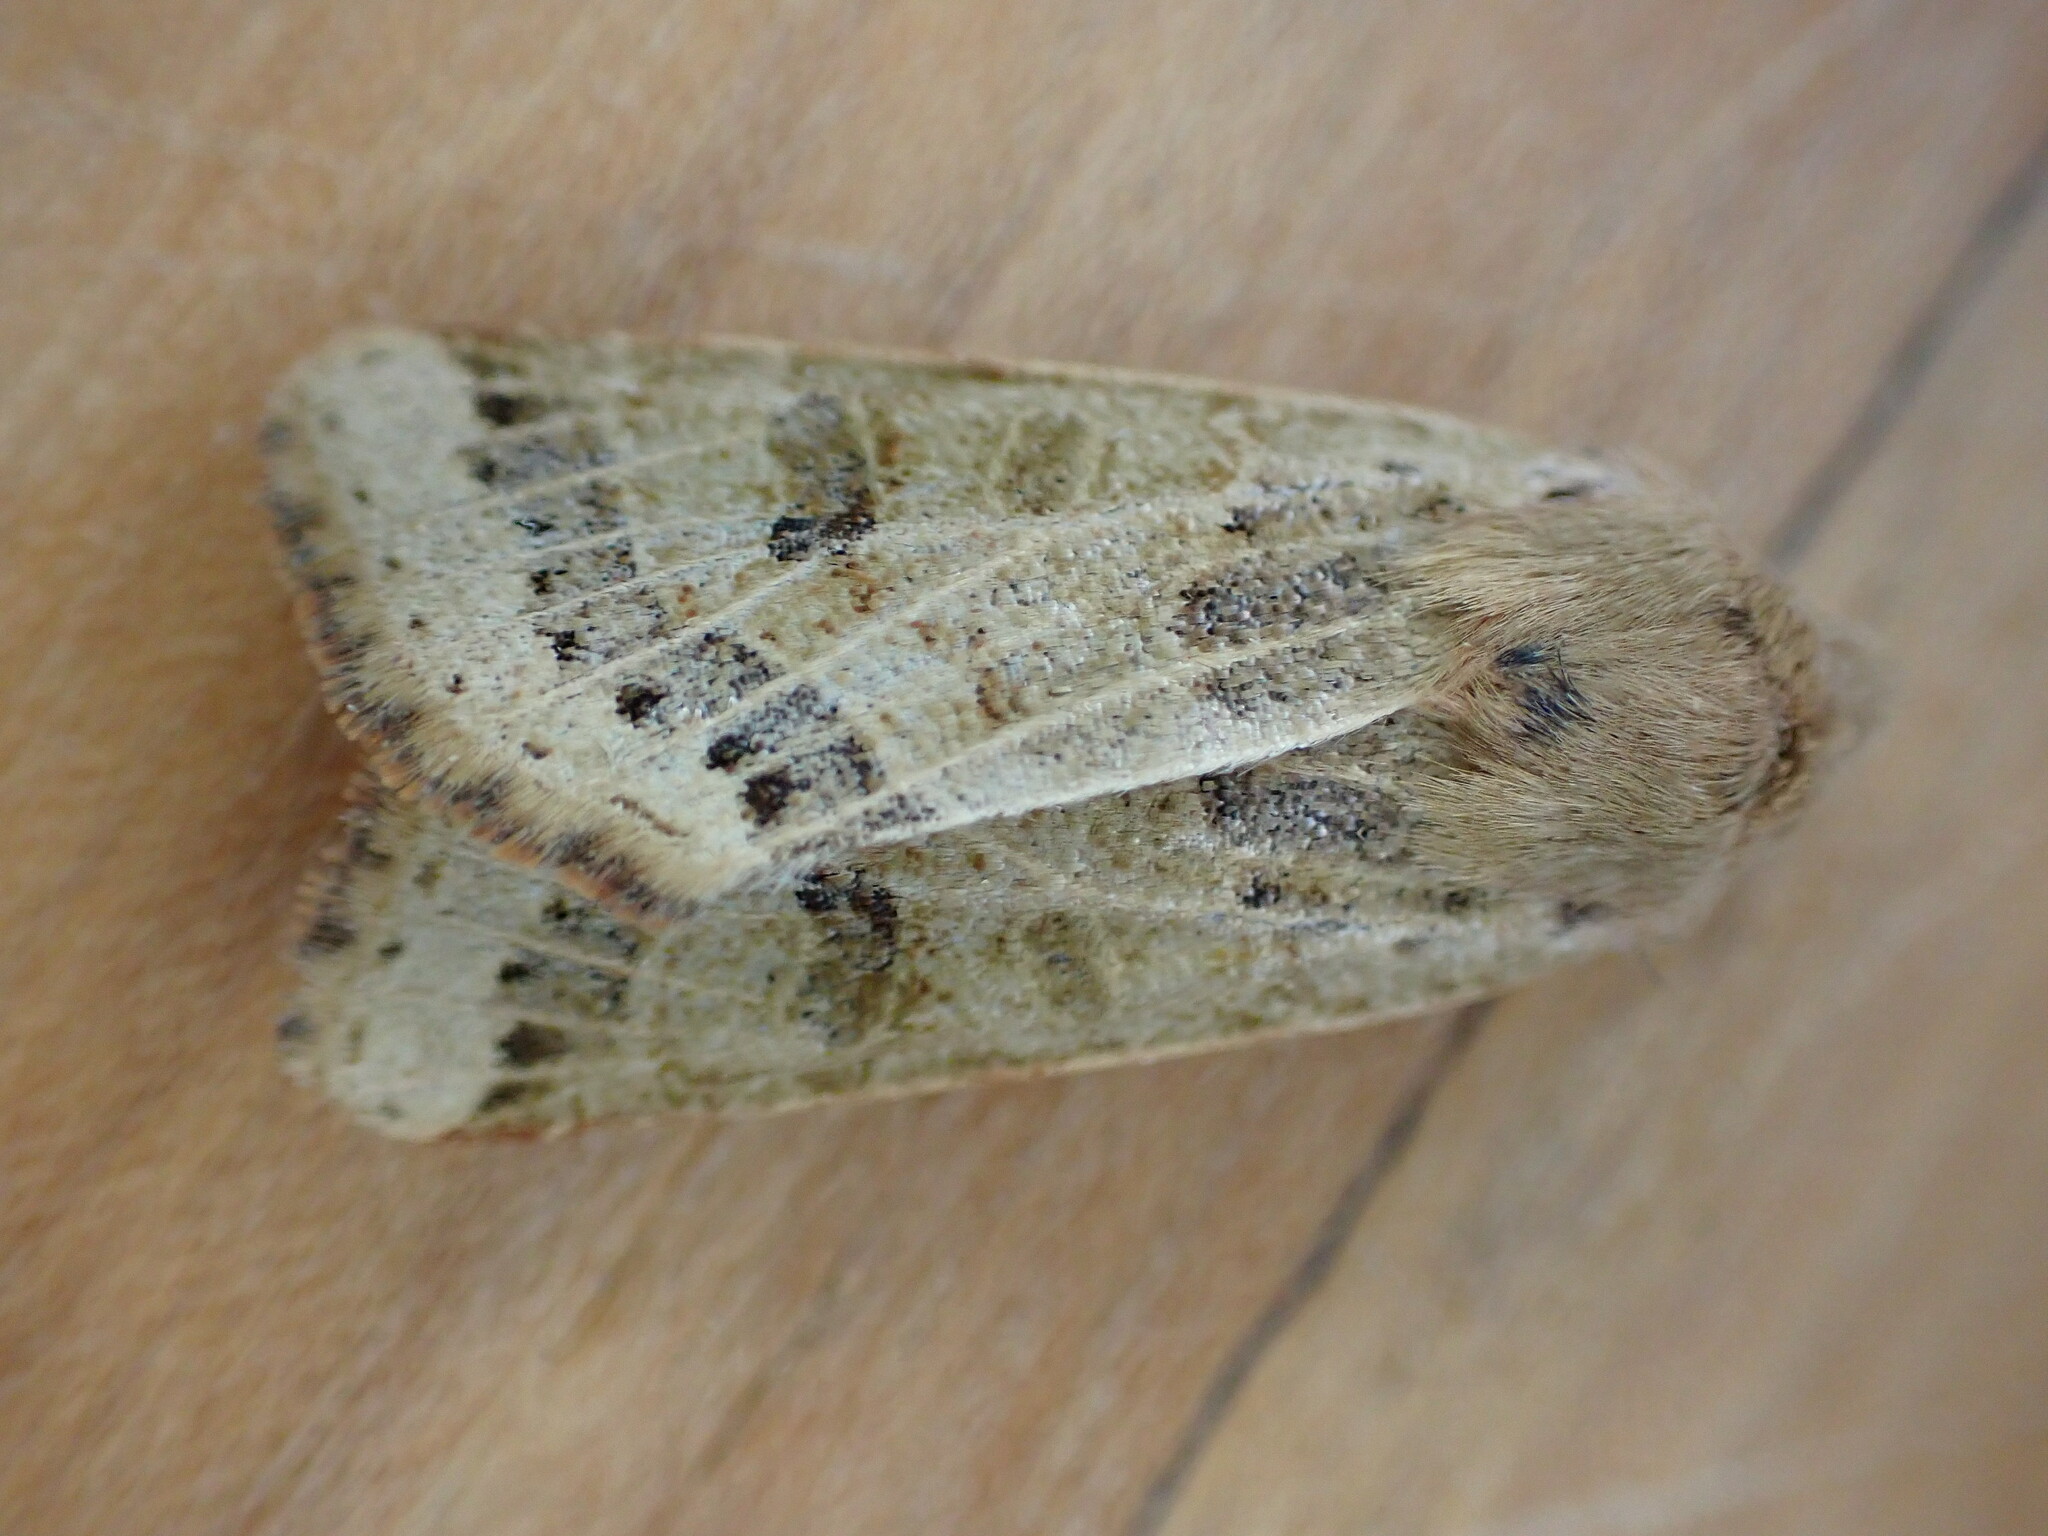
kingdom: Animalia
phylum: Arthropoda
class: Insecta
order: Lepidoptera
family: Noctuidae
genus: Agrochola
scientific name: Agrochola lunosa
